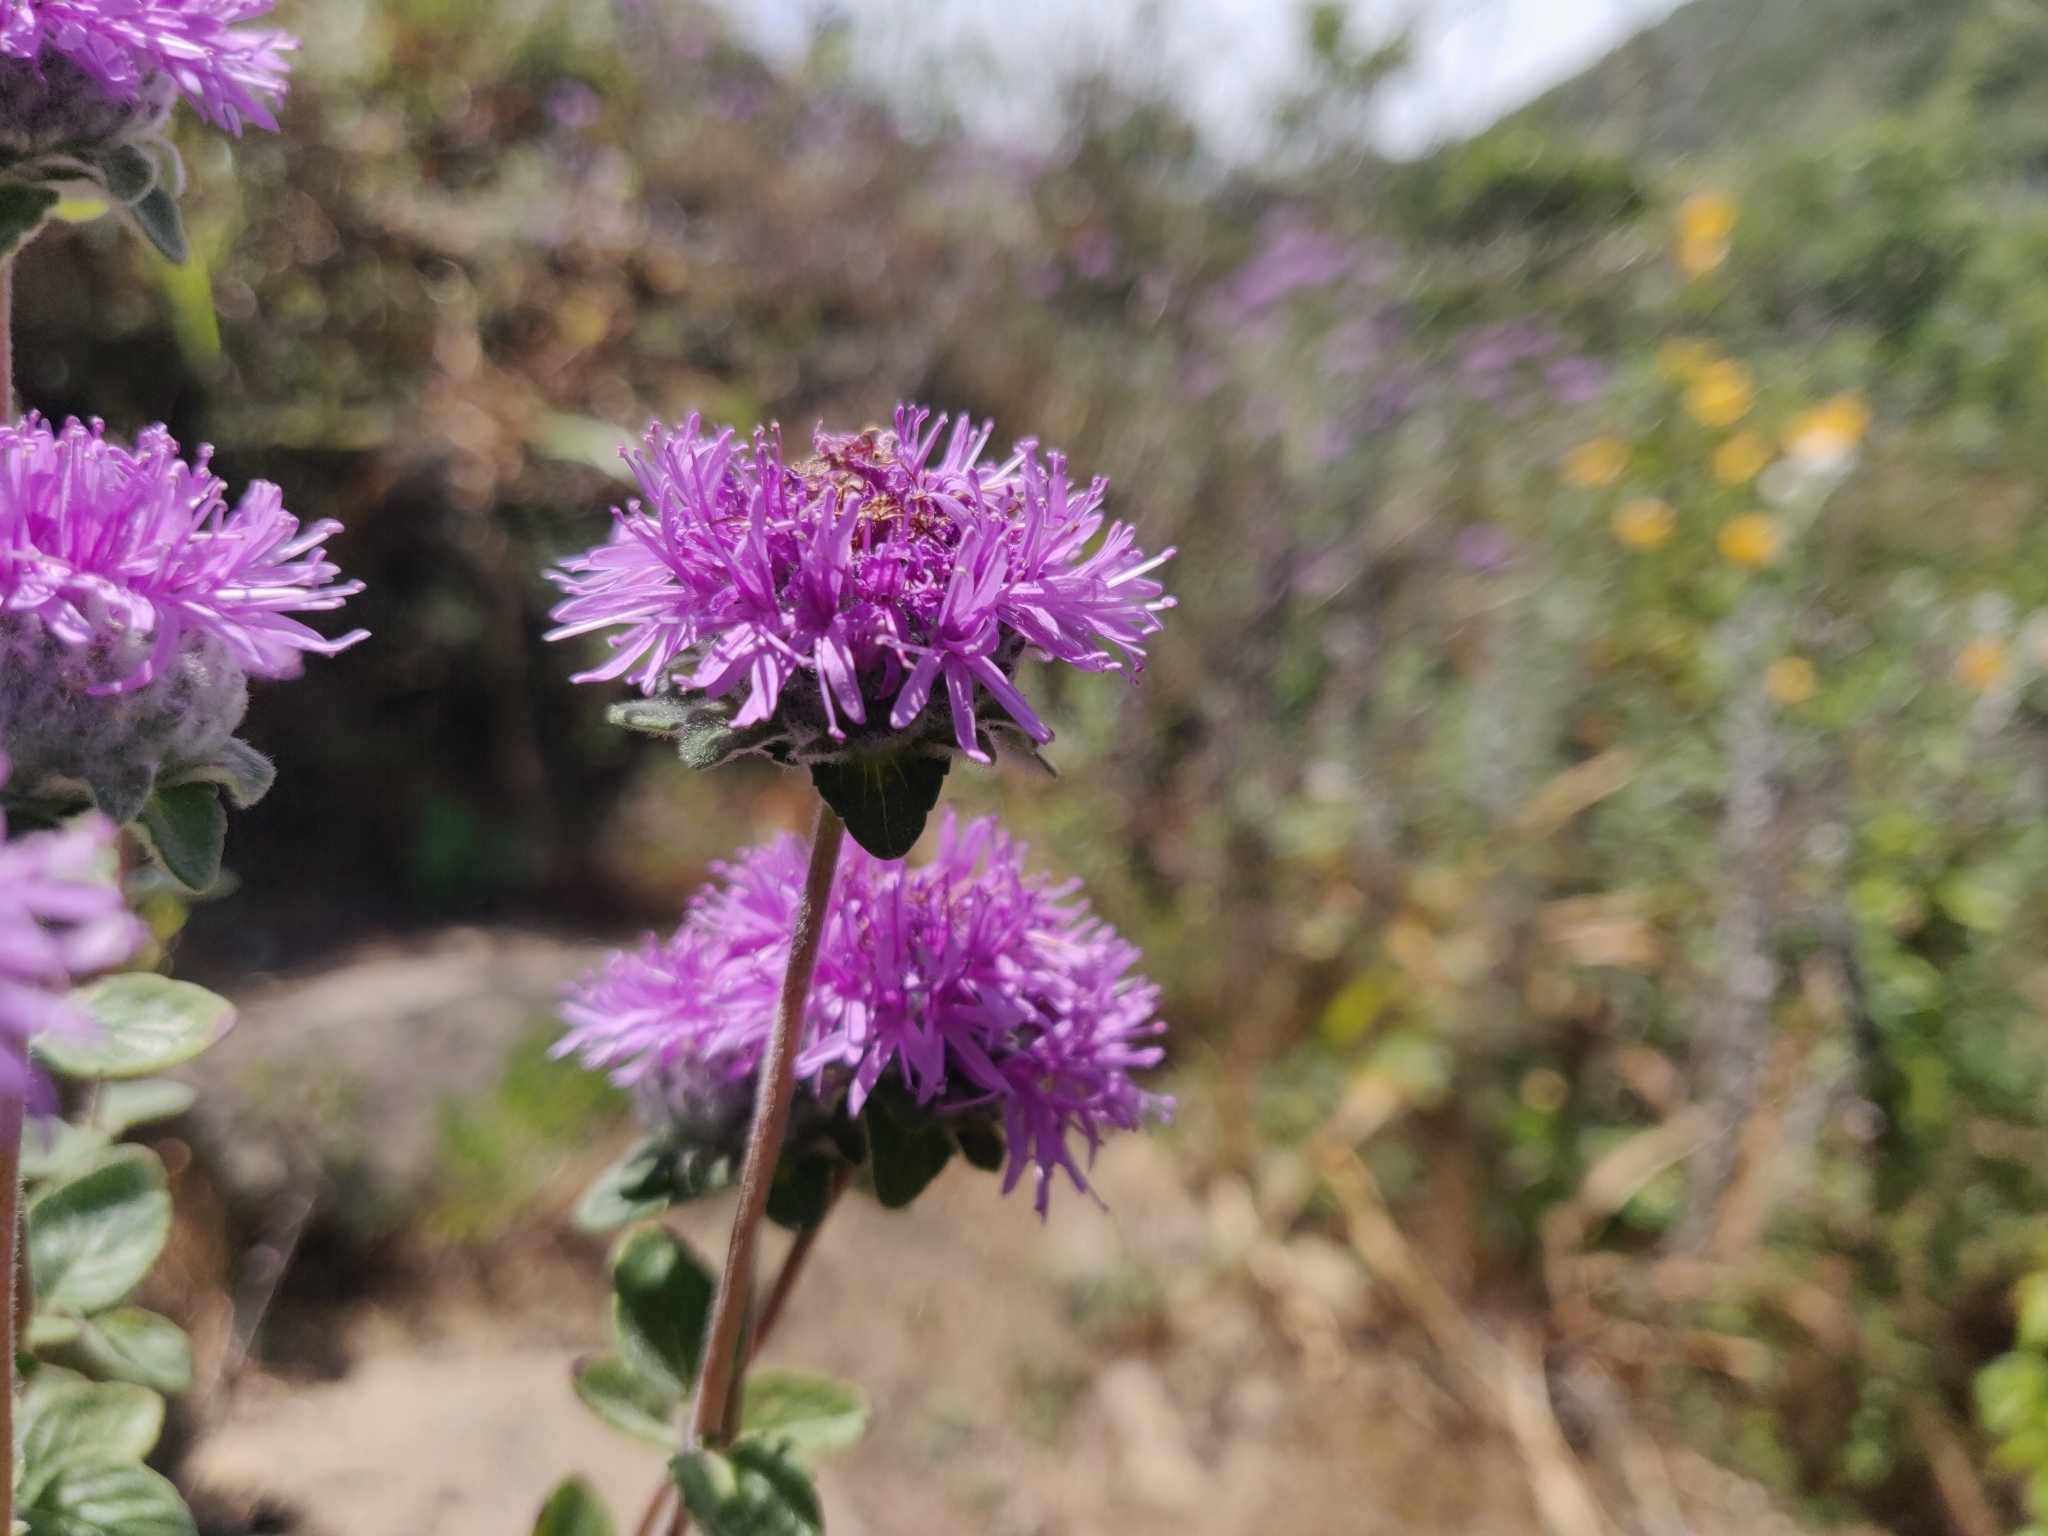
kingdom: Plantae
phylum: Tracheophyta
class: Magnoliopsida
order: Lamiales
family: Lamiaceae
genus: Monardella
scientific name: Monardella odoratissima
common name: Pacific monardella
